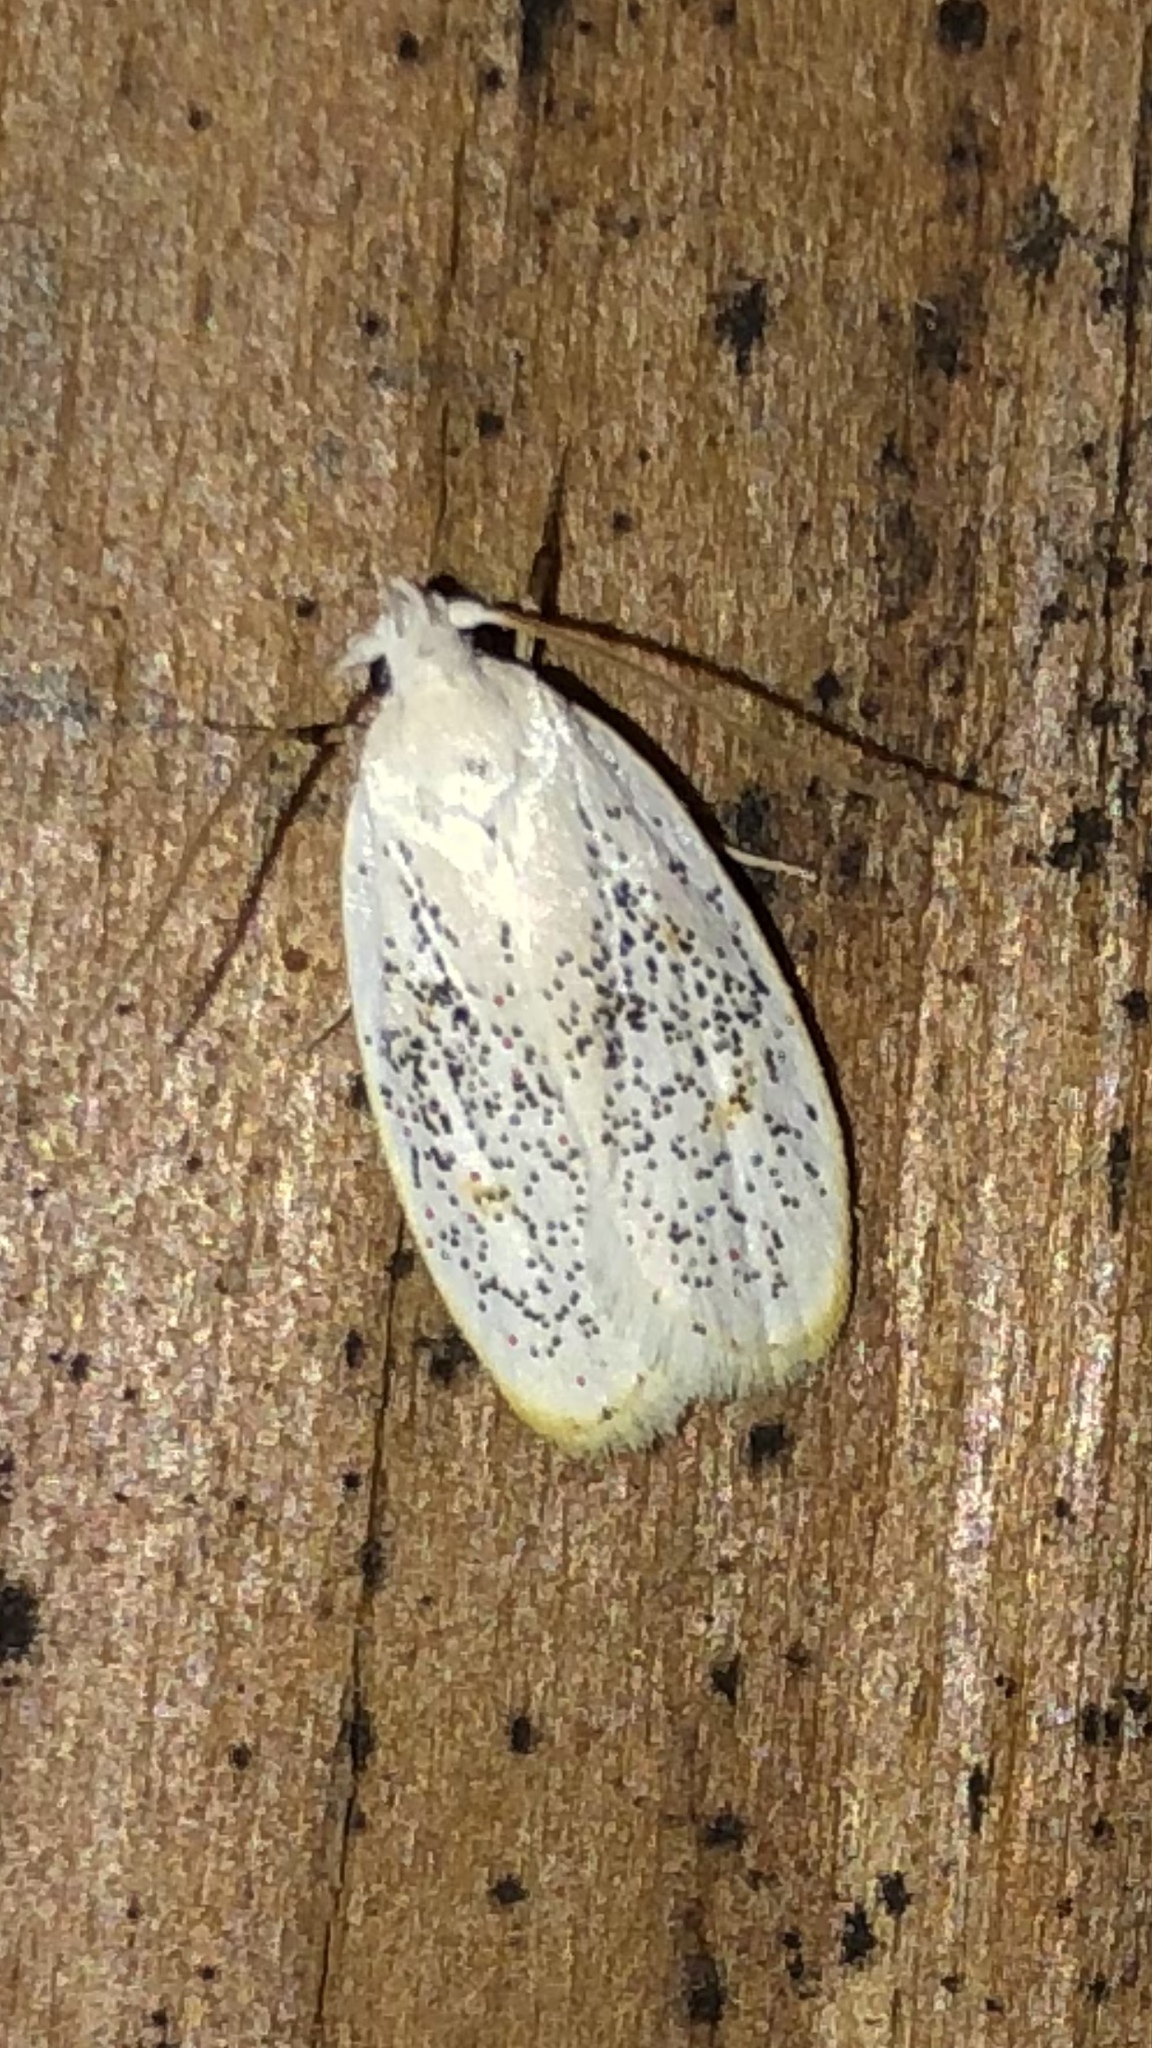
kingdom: Animalia
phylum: Arthropoda
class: Insecta
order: Lepidoptera
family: Peleopodidae
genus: Durrantia
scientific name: Durrantia piperatella
